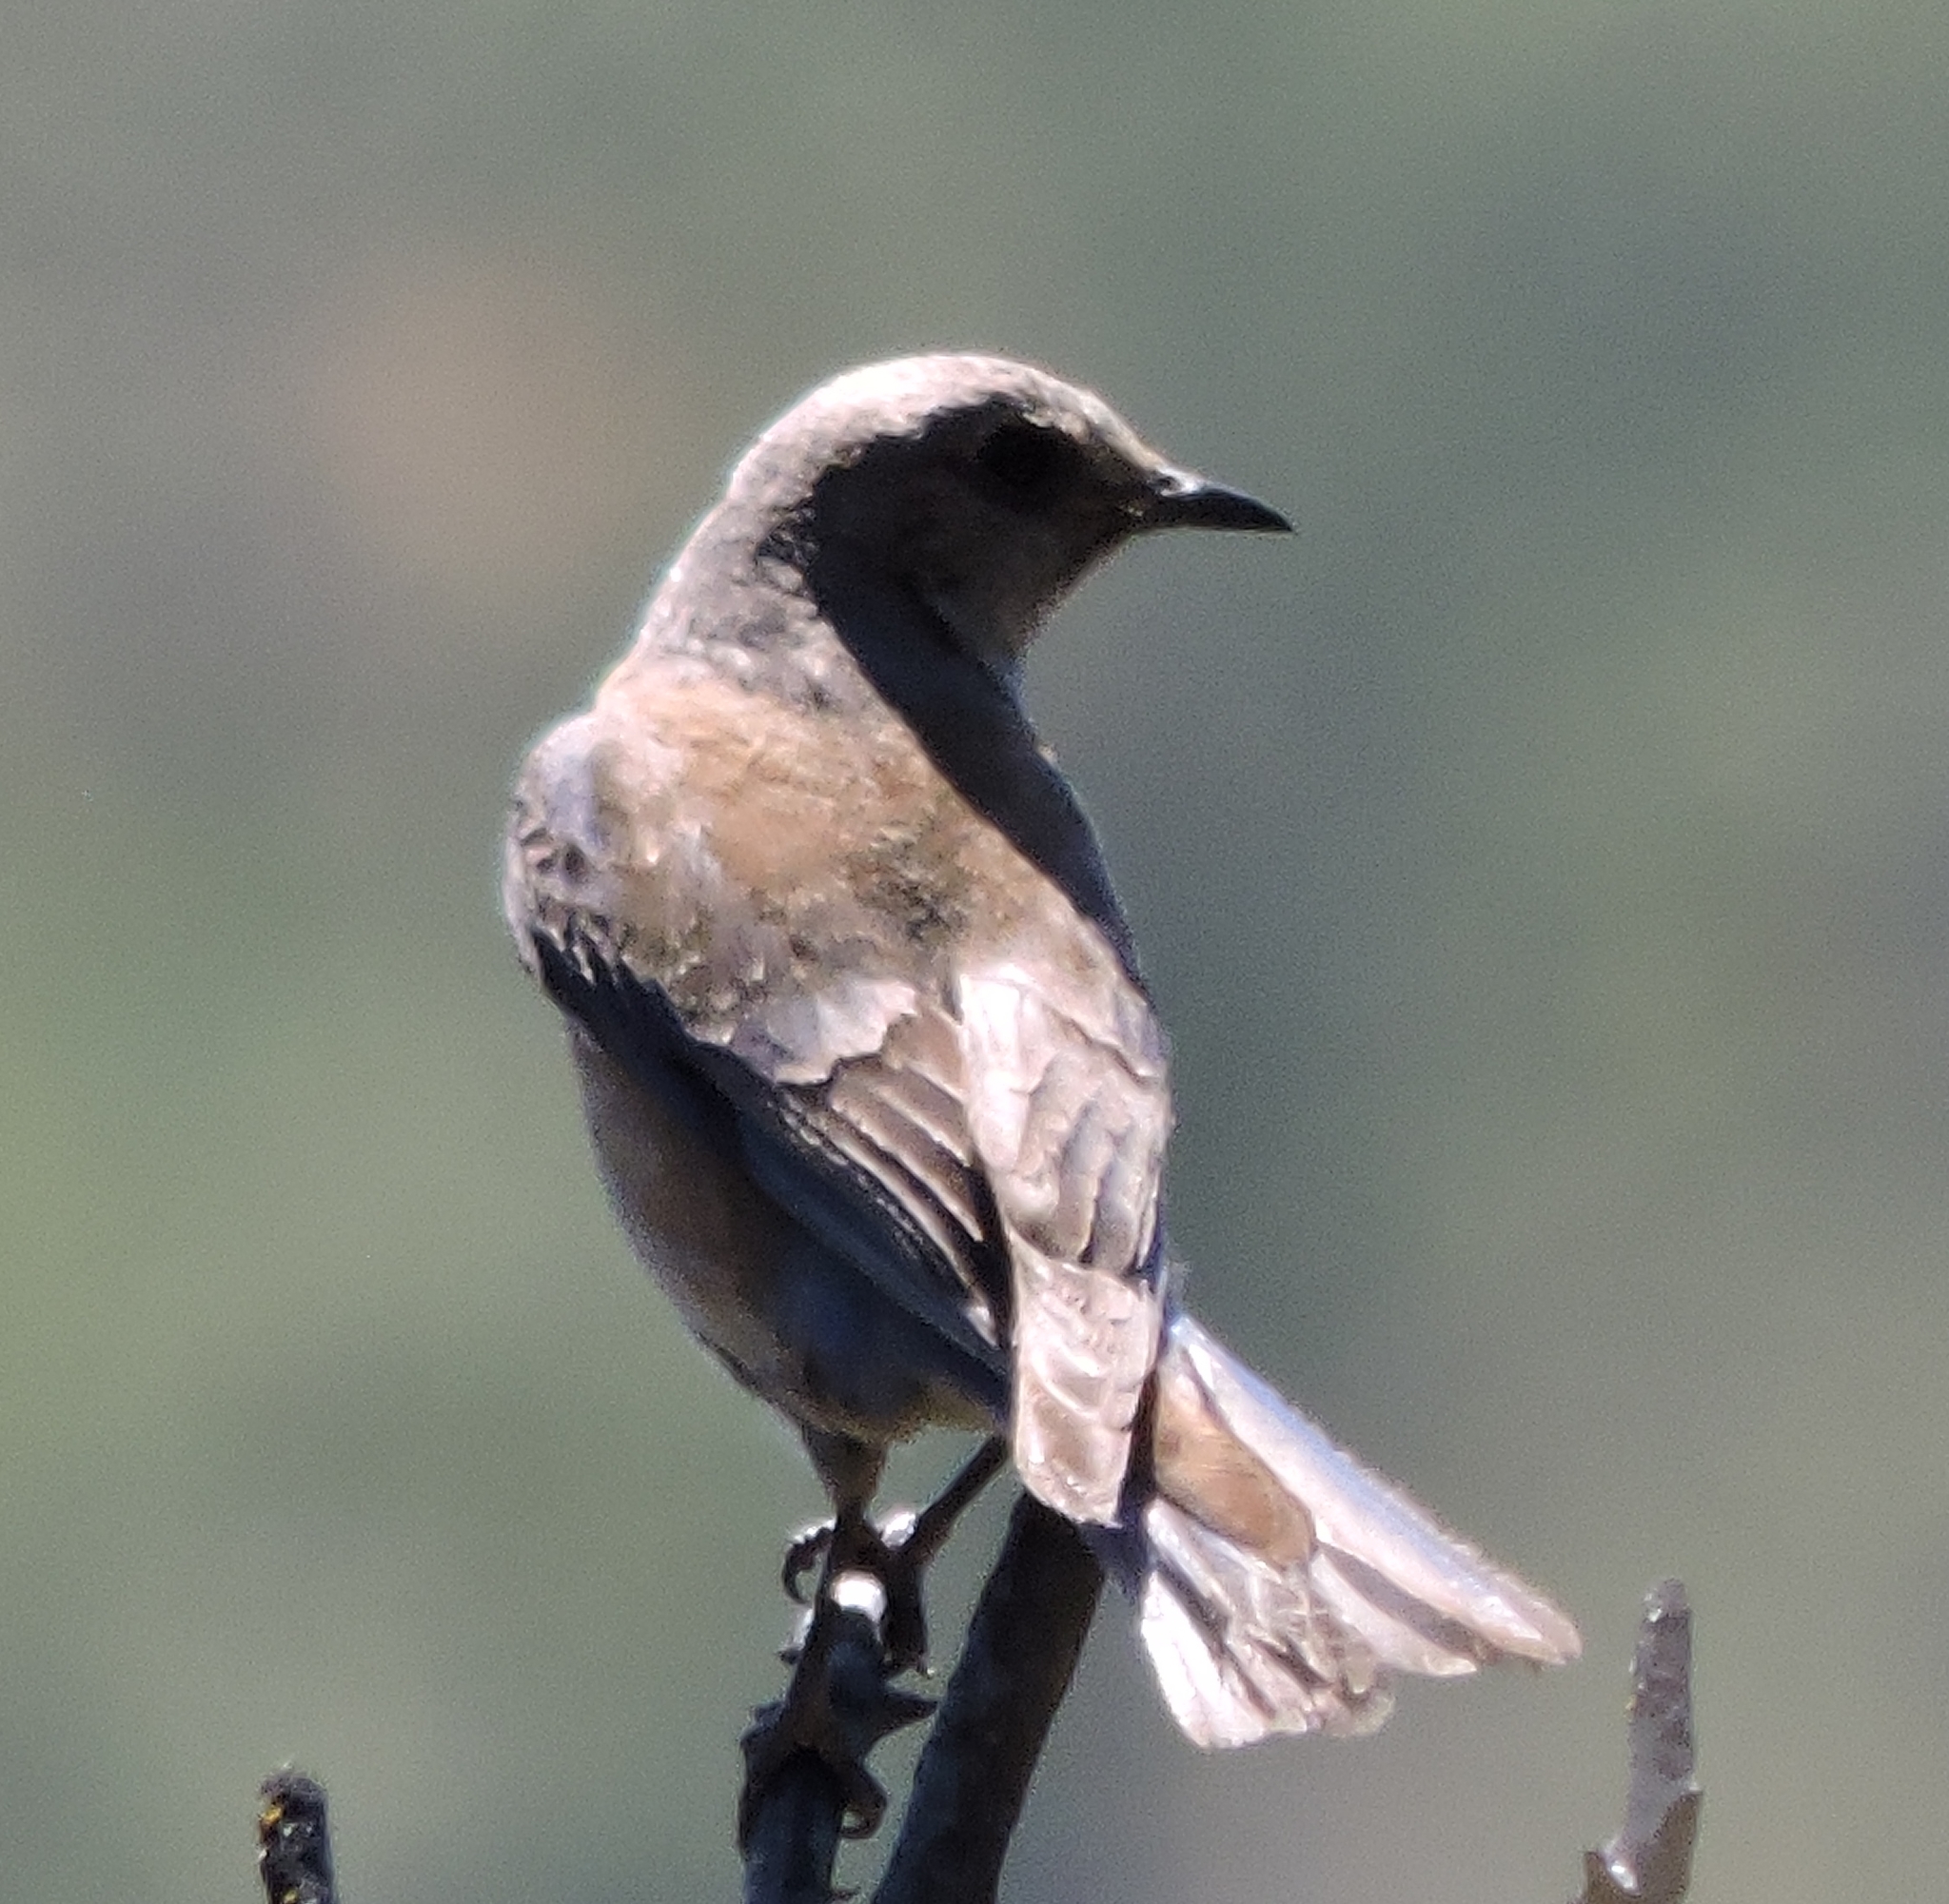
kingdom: Animalia
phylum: Chordata
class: Aves
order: Passeriformes
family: Turdidae
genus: Sialia
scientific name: Sialia mexicana
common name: Western bluebird
